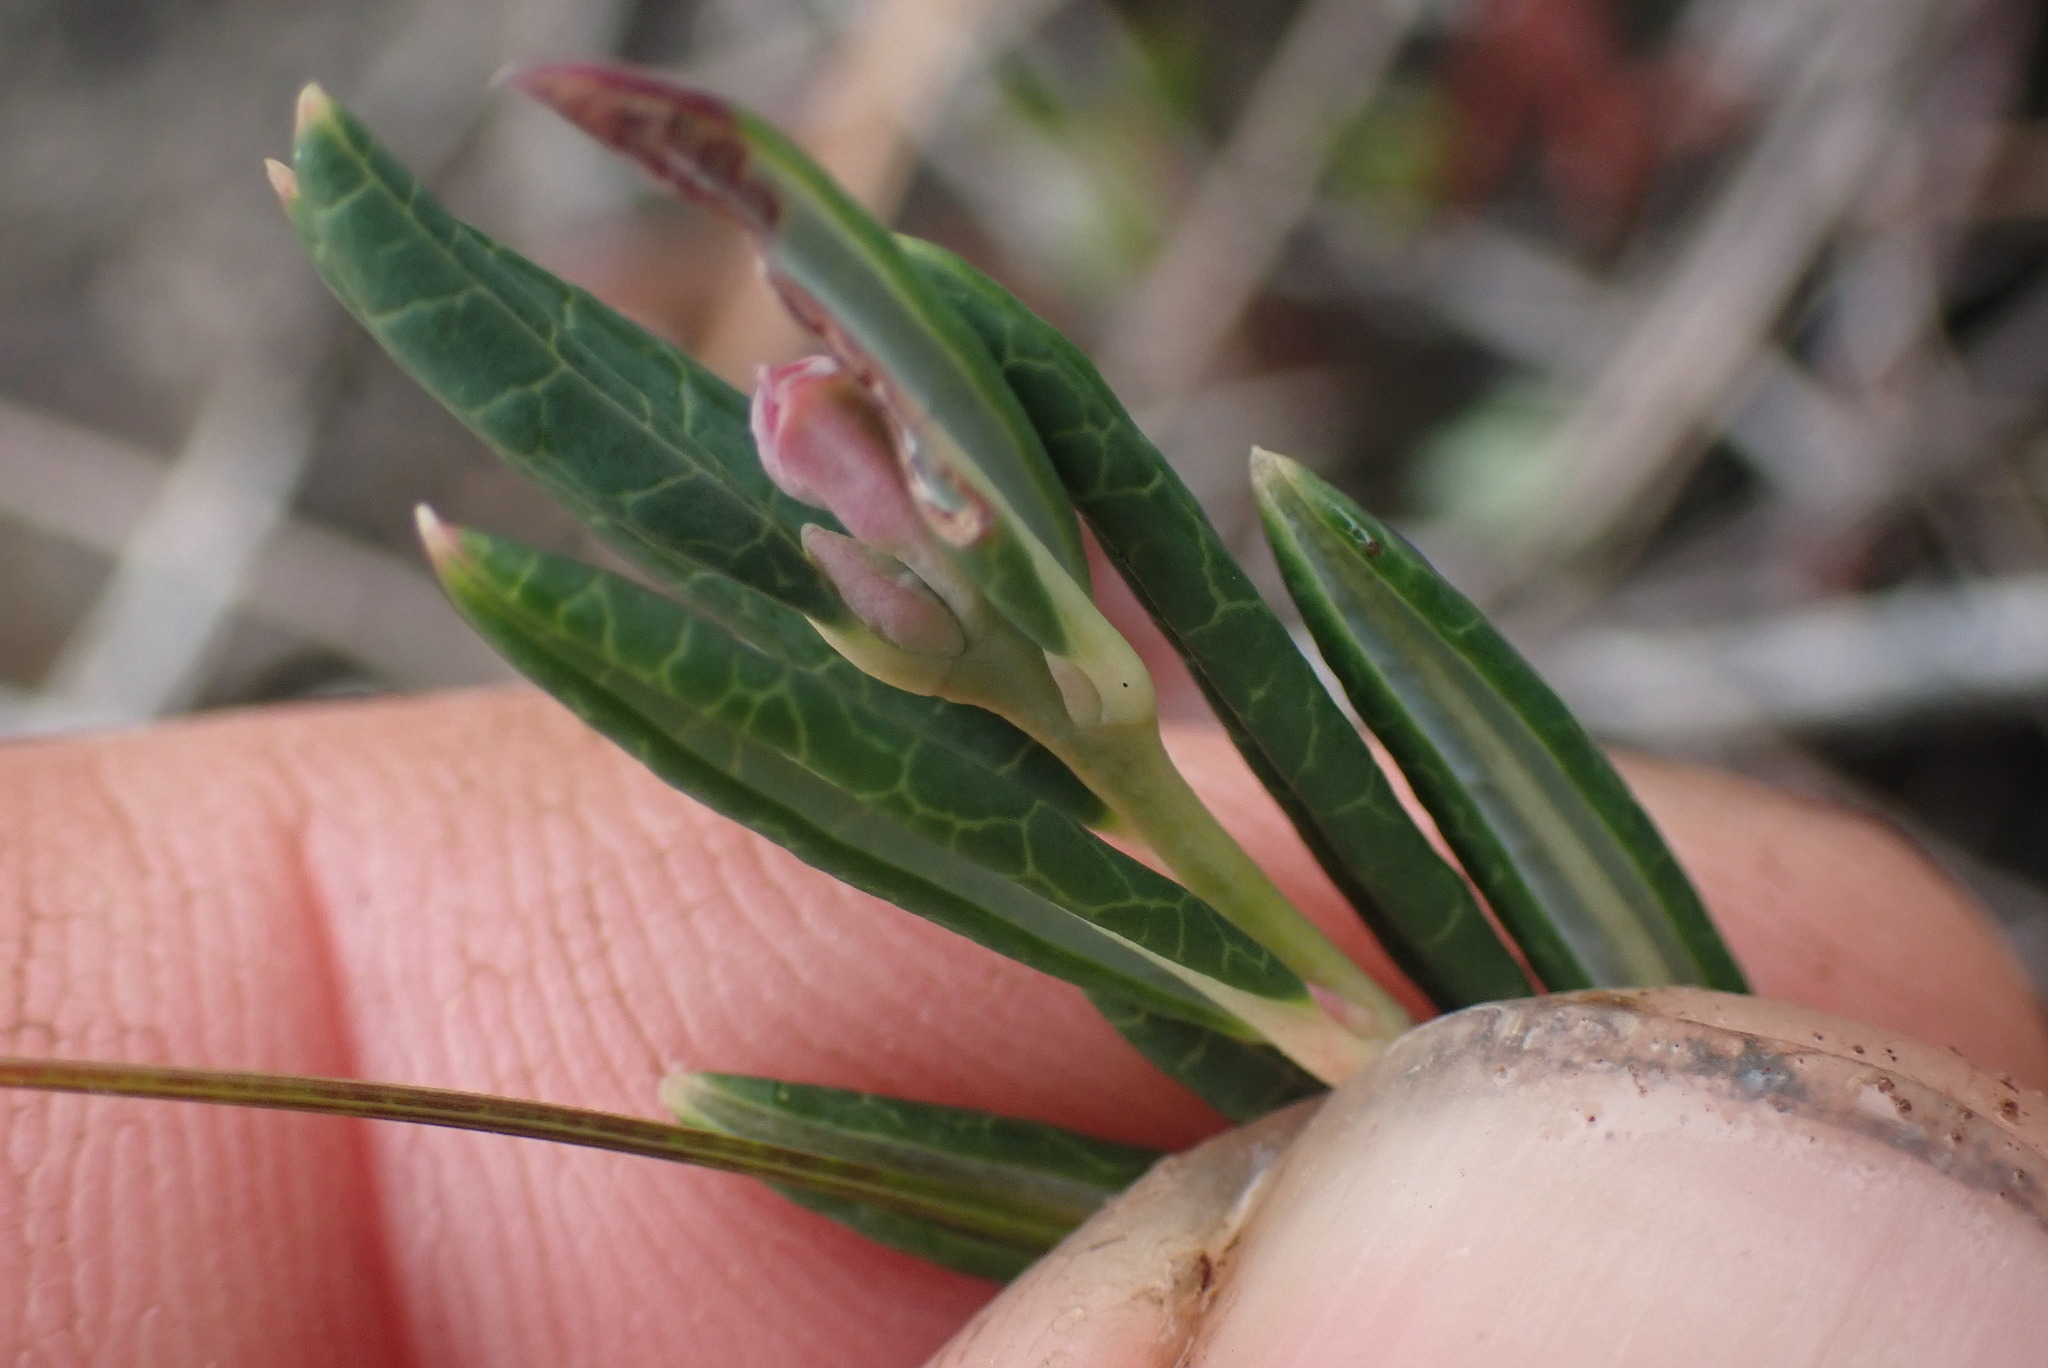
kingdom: Plantae
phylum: Tracheophyta
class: Magnoliopsida
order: Ericales
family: Ericaceae
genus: Andromeda
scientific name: Andromeda polifolia
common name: Bog-rosemary
